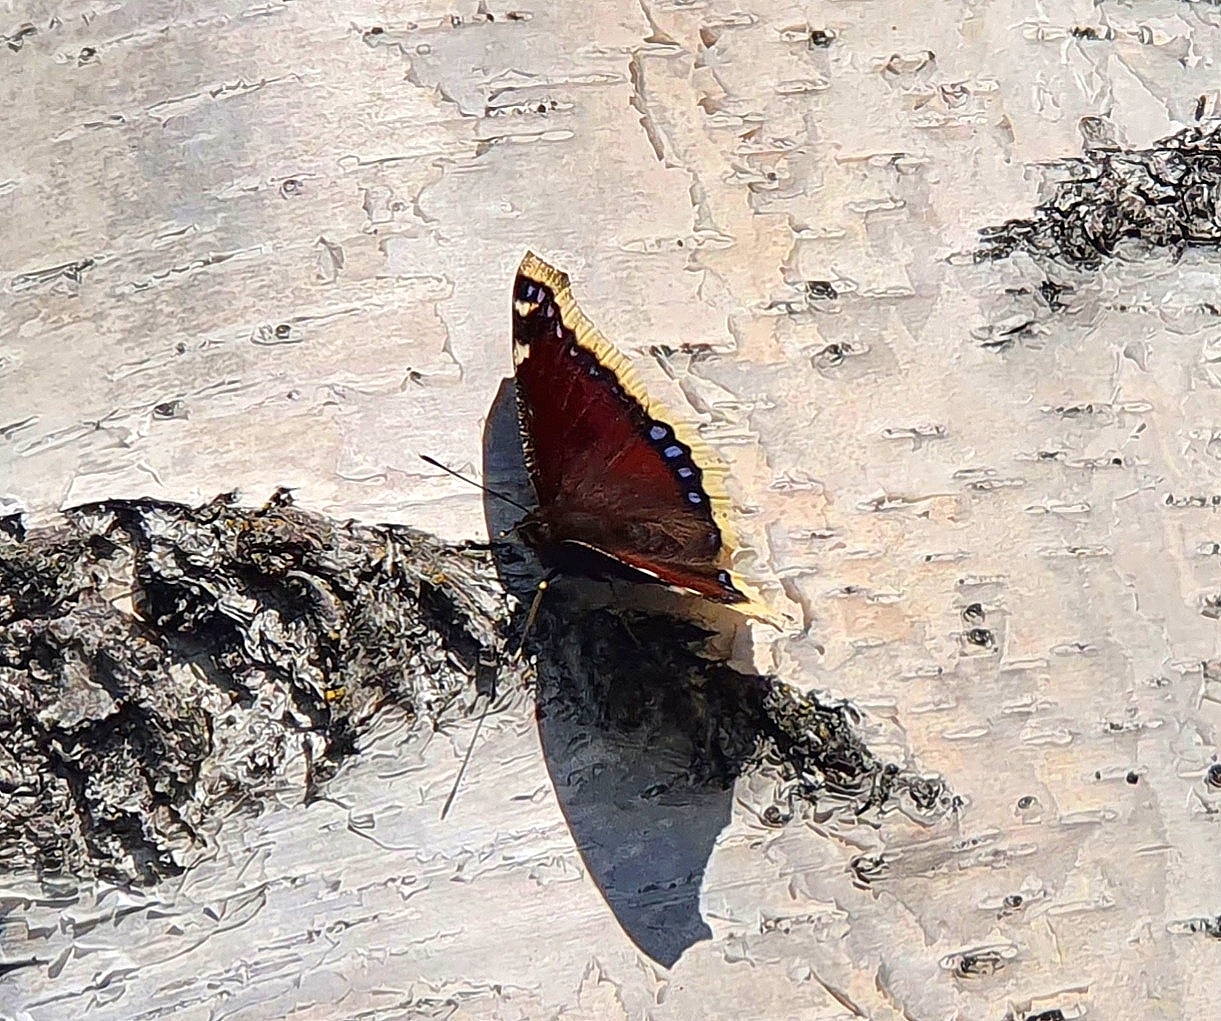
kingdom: Animalia
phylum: Arthropoda
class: Insecta
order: Lepidoptera
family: Nymphalidae
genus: Nymphalis
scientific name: Nymphalis antiopa
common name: Camberwell beauty
